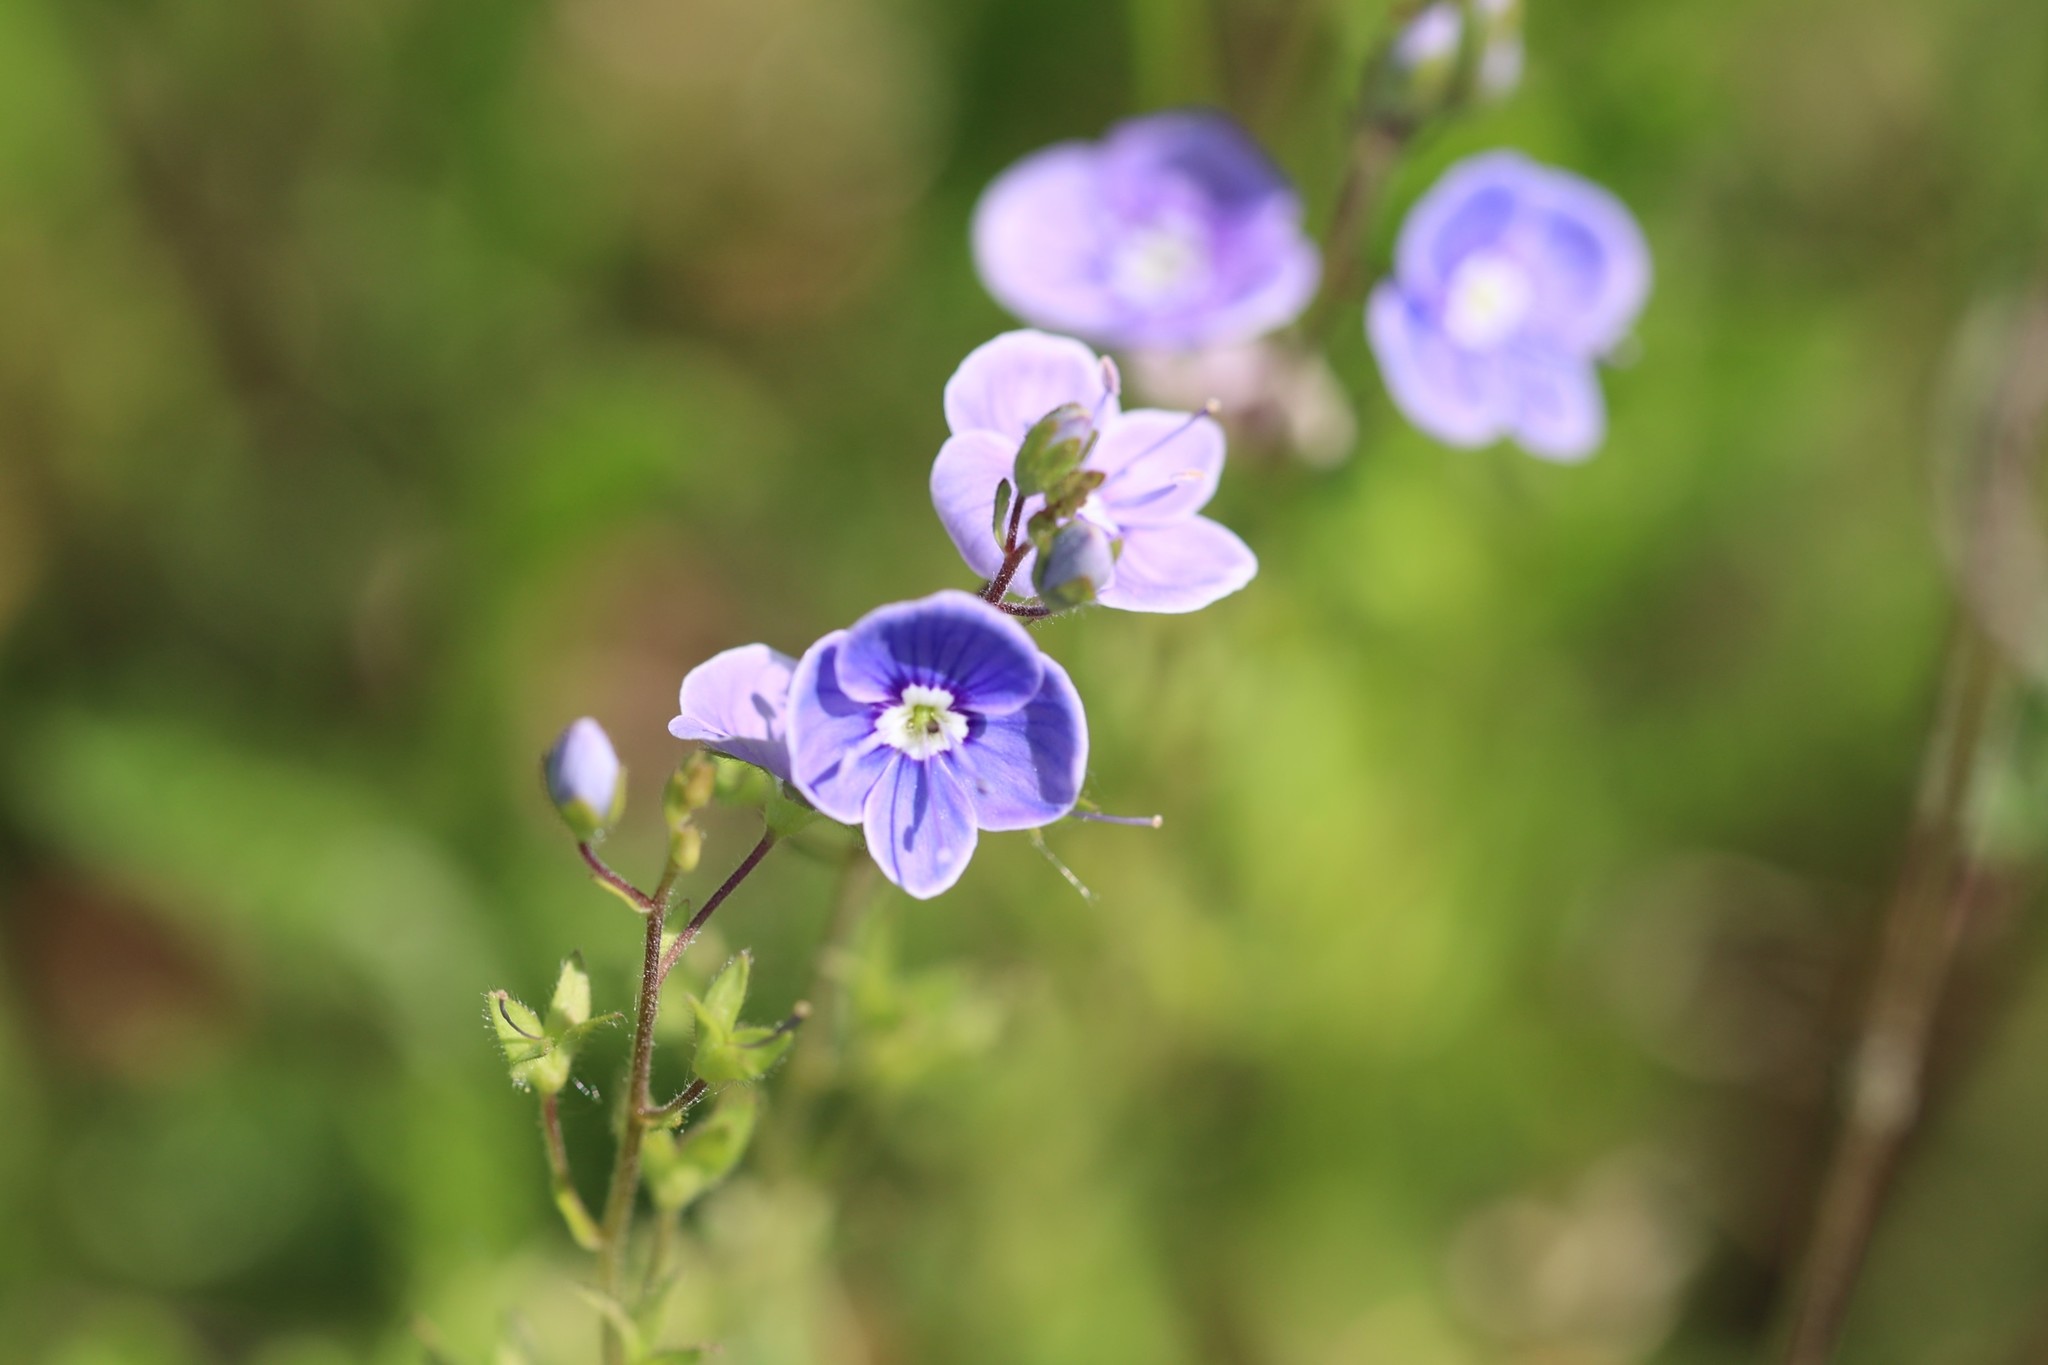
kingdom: Plantae
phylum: Tracheophyta
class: Magnoliopsida
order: Lamiales
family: Plantaginaceae
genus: Veronica
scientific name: Veronica chamaedrys
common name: Germander speedwell
